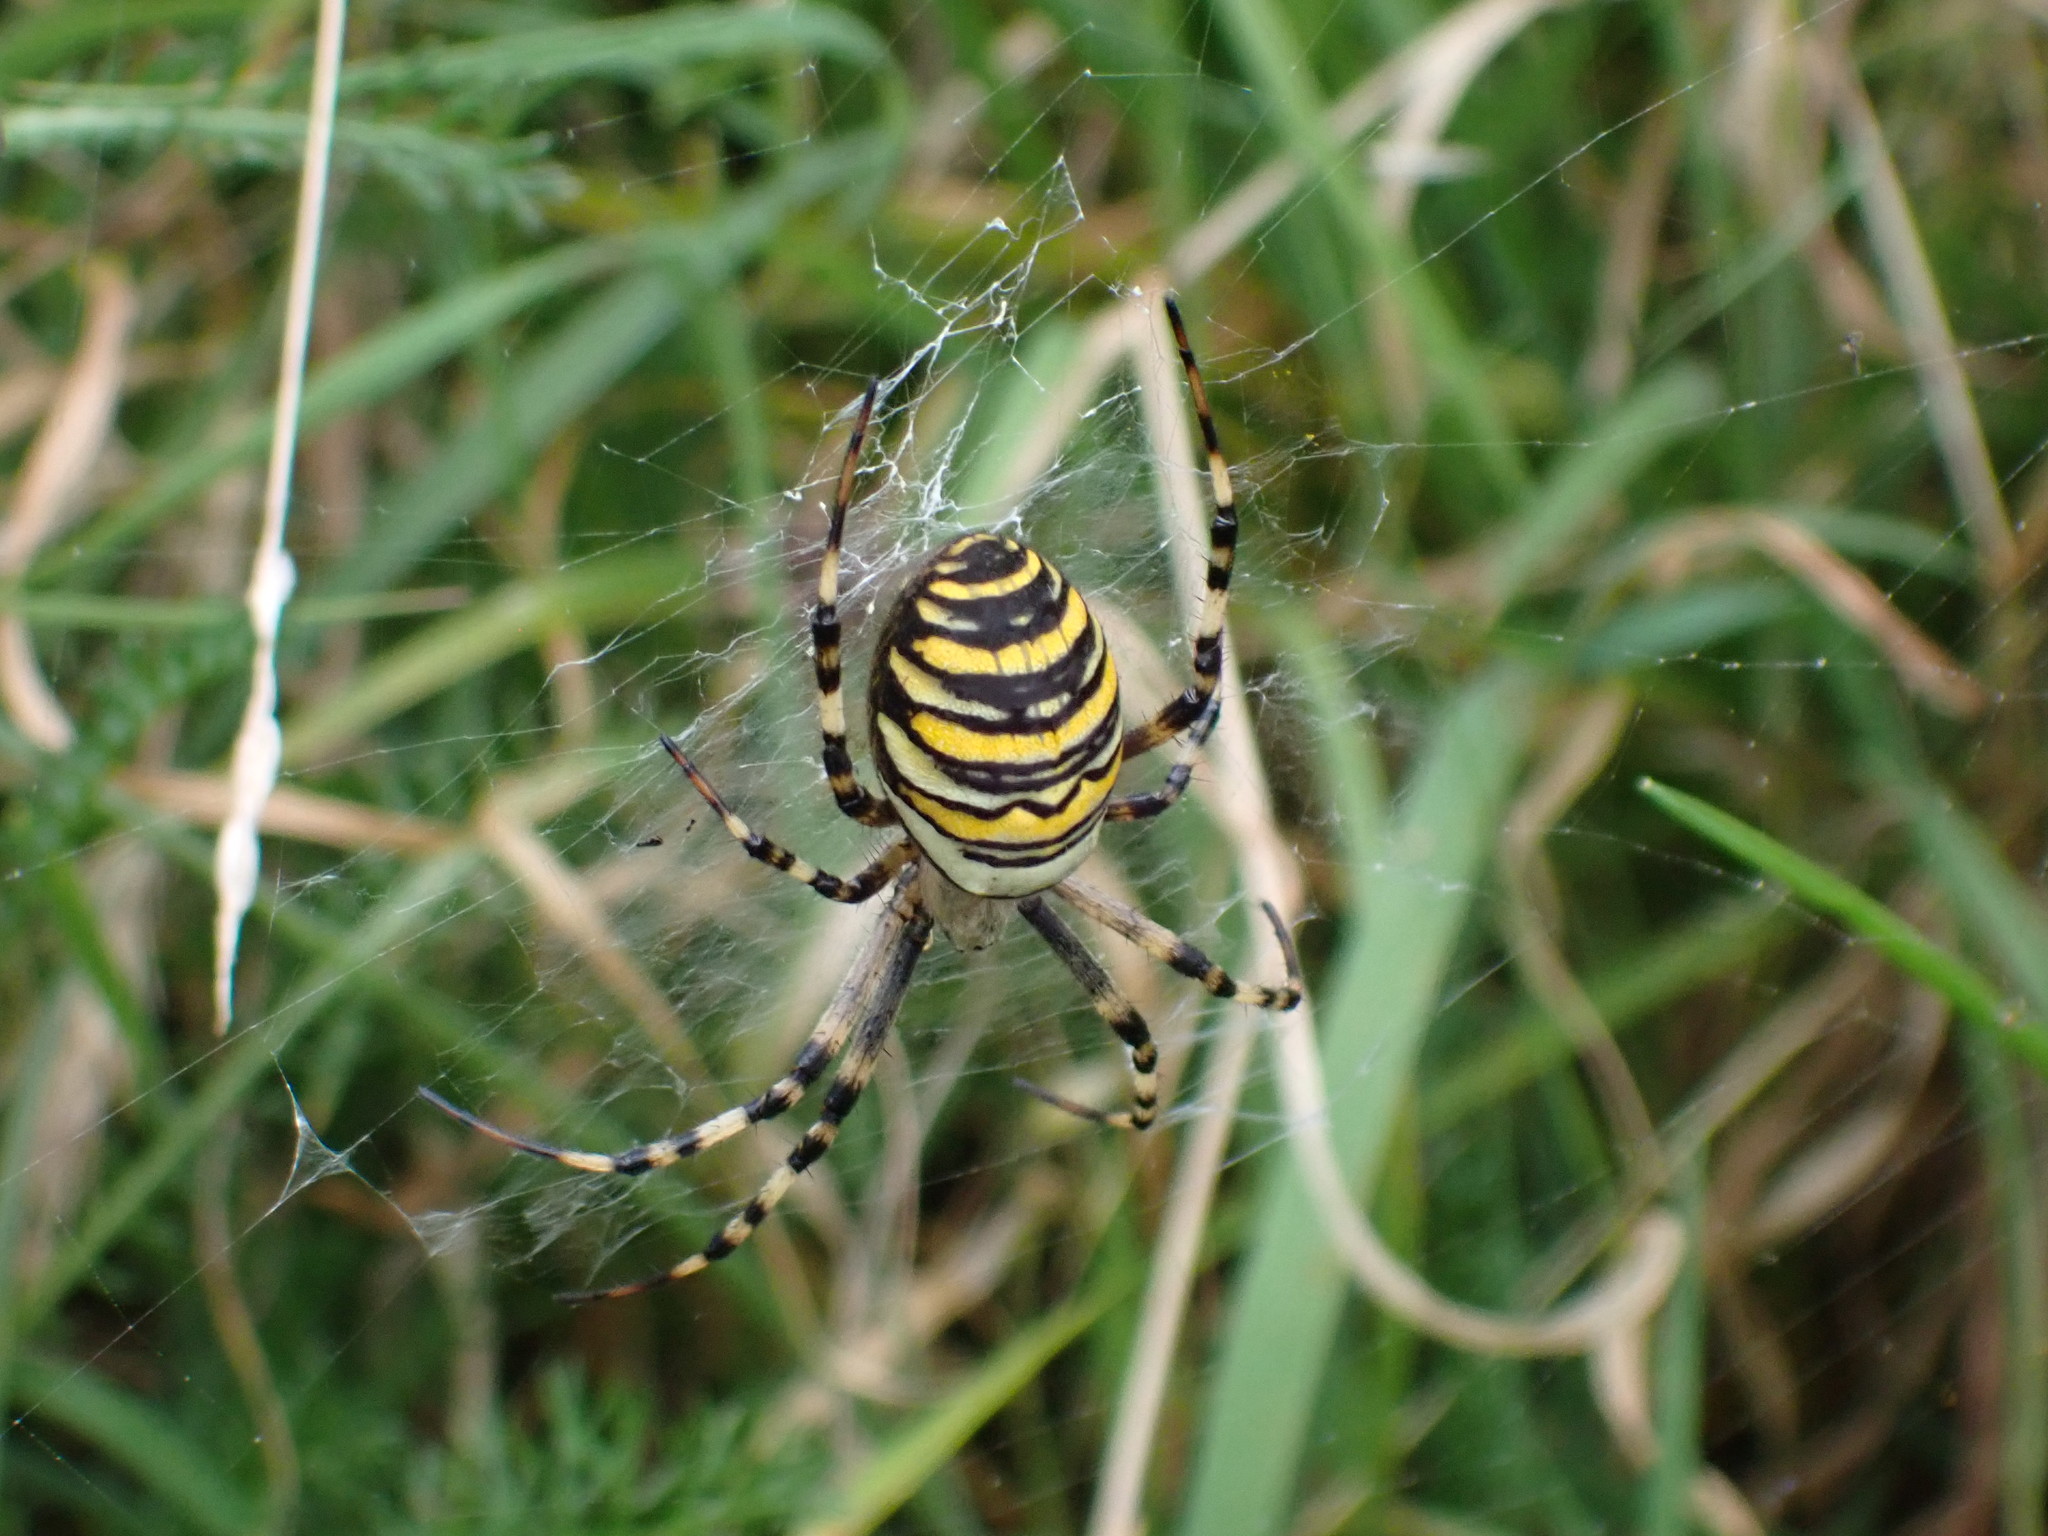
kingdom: Animalia
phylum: Arthropoda
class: Arachnida
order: Araneae
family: Araneidae
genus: Argiope
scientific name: Argiope bruennichi
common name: Wasp spider
